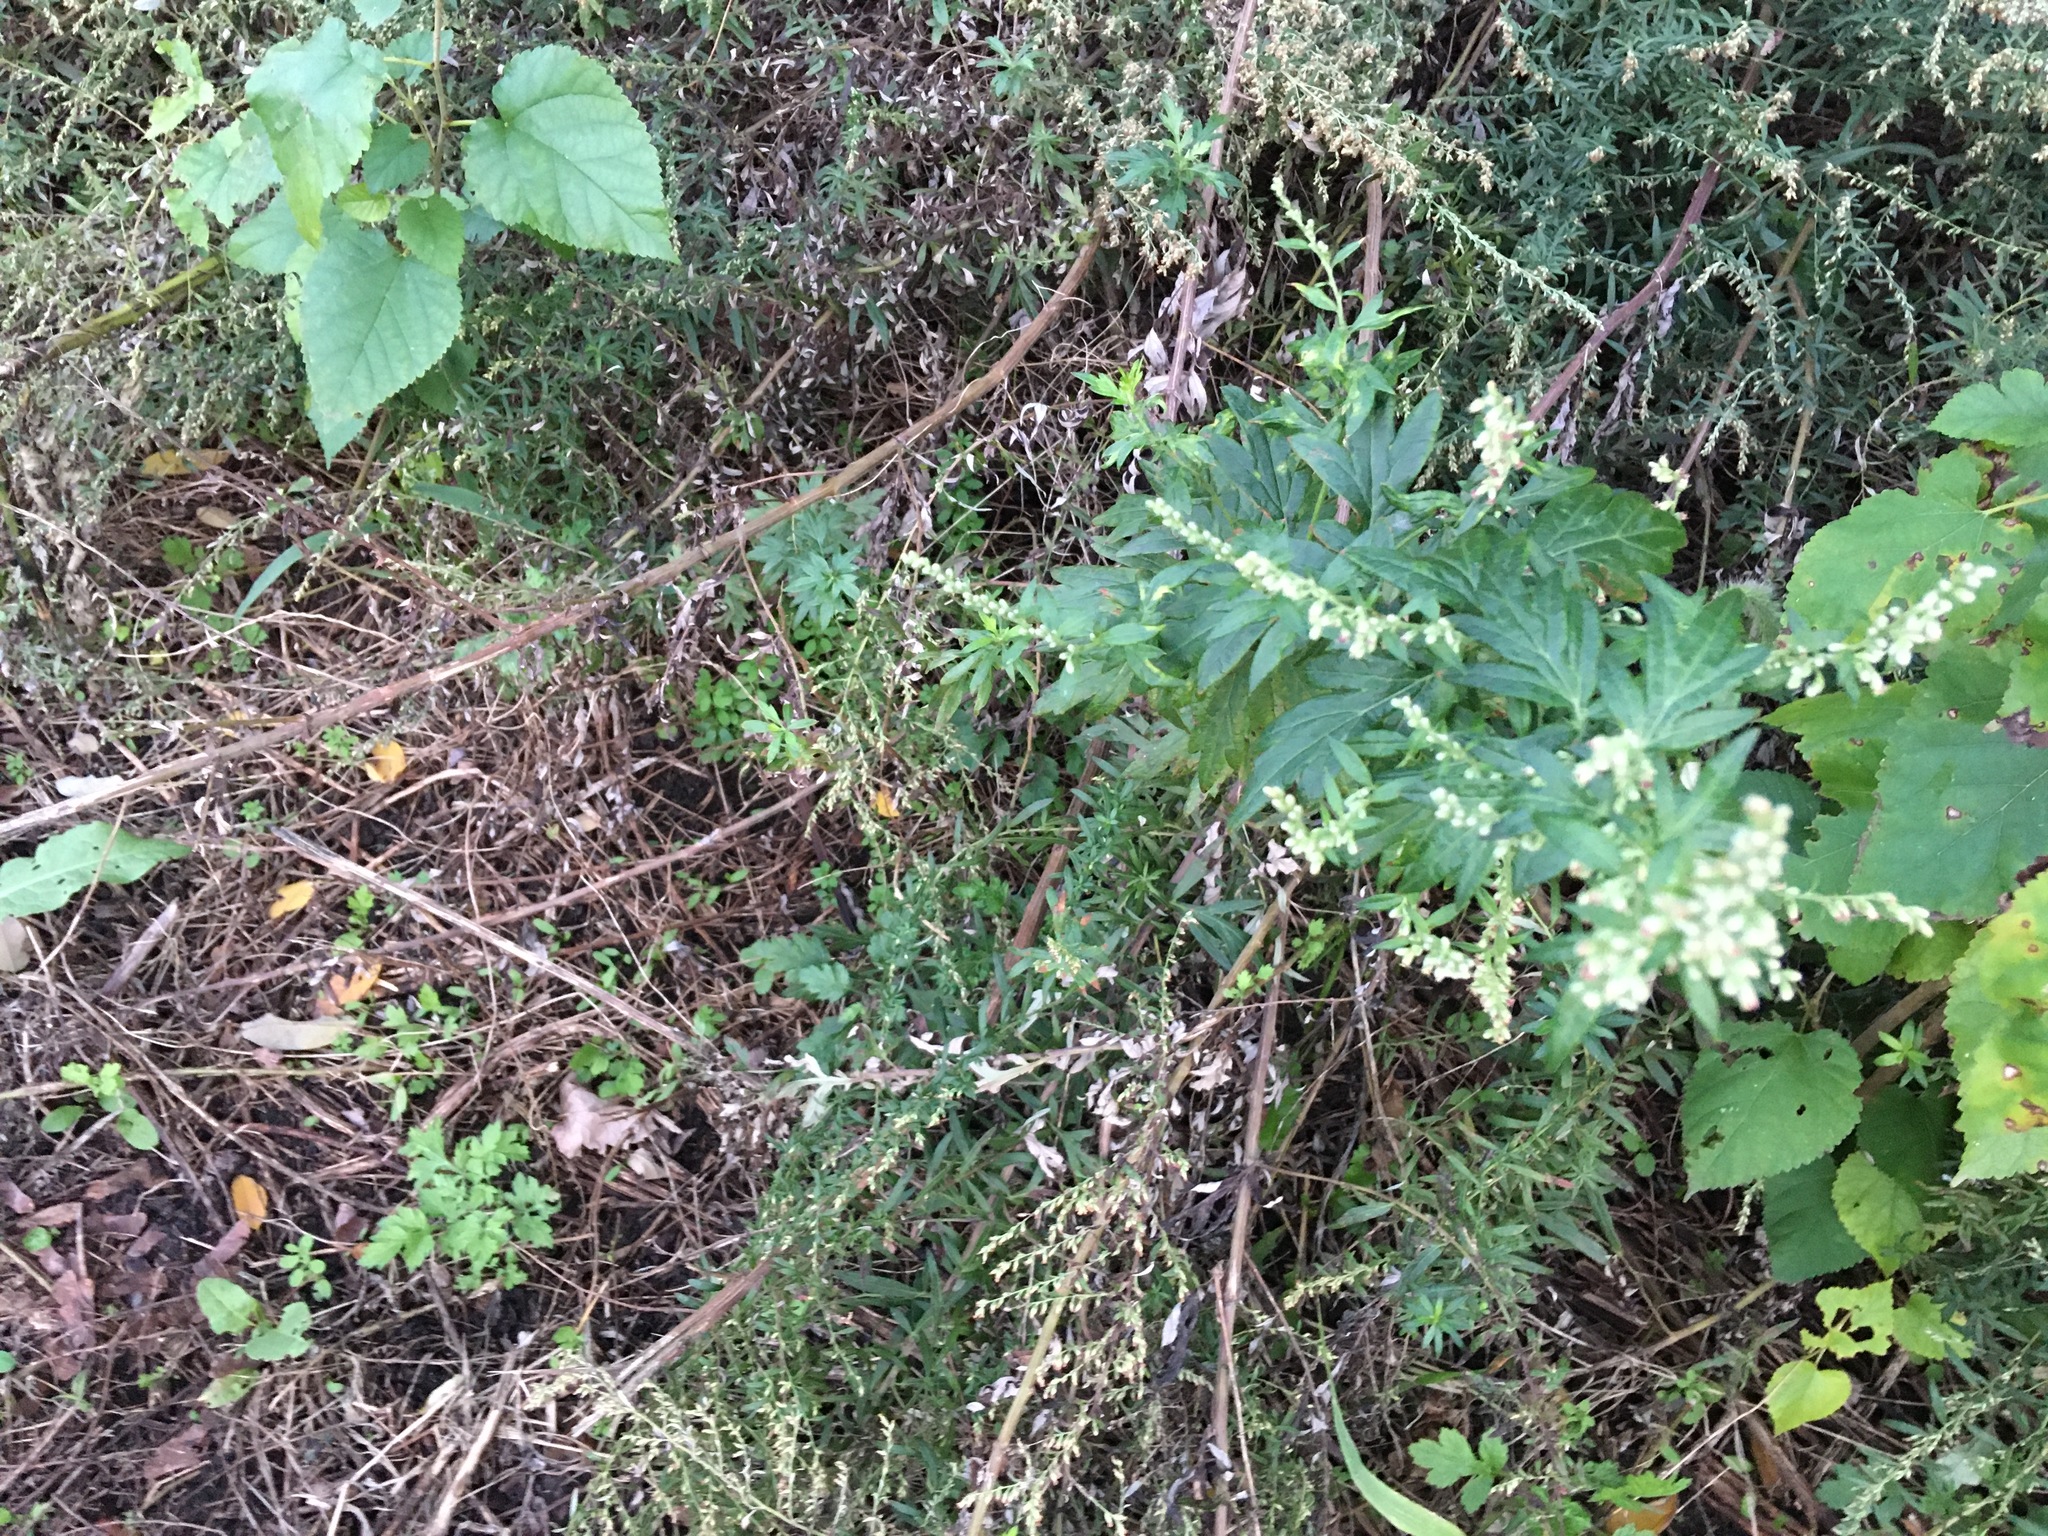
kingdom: Plantae
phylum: Tracheophyta
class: Magnoliopsida
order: Asterales
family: Asteraceae
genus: Artemisia
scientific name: Artemisia vulgaris
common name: Mugwort
